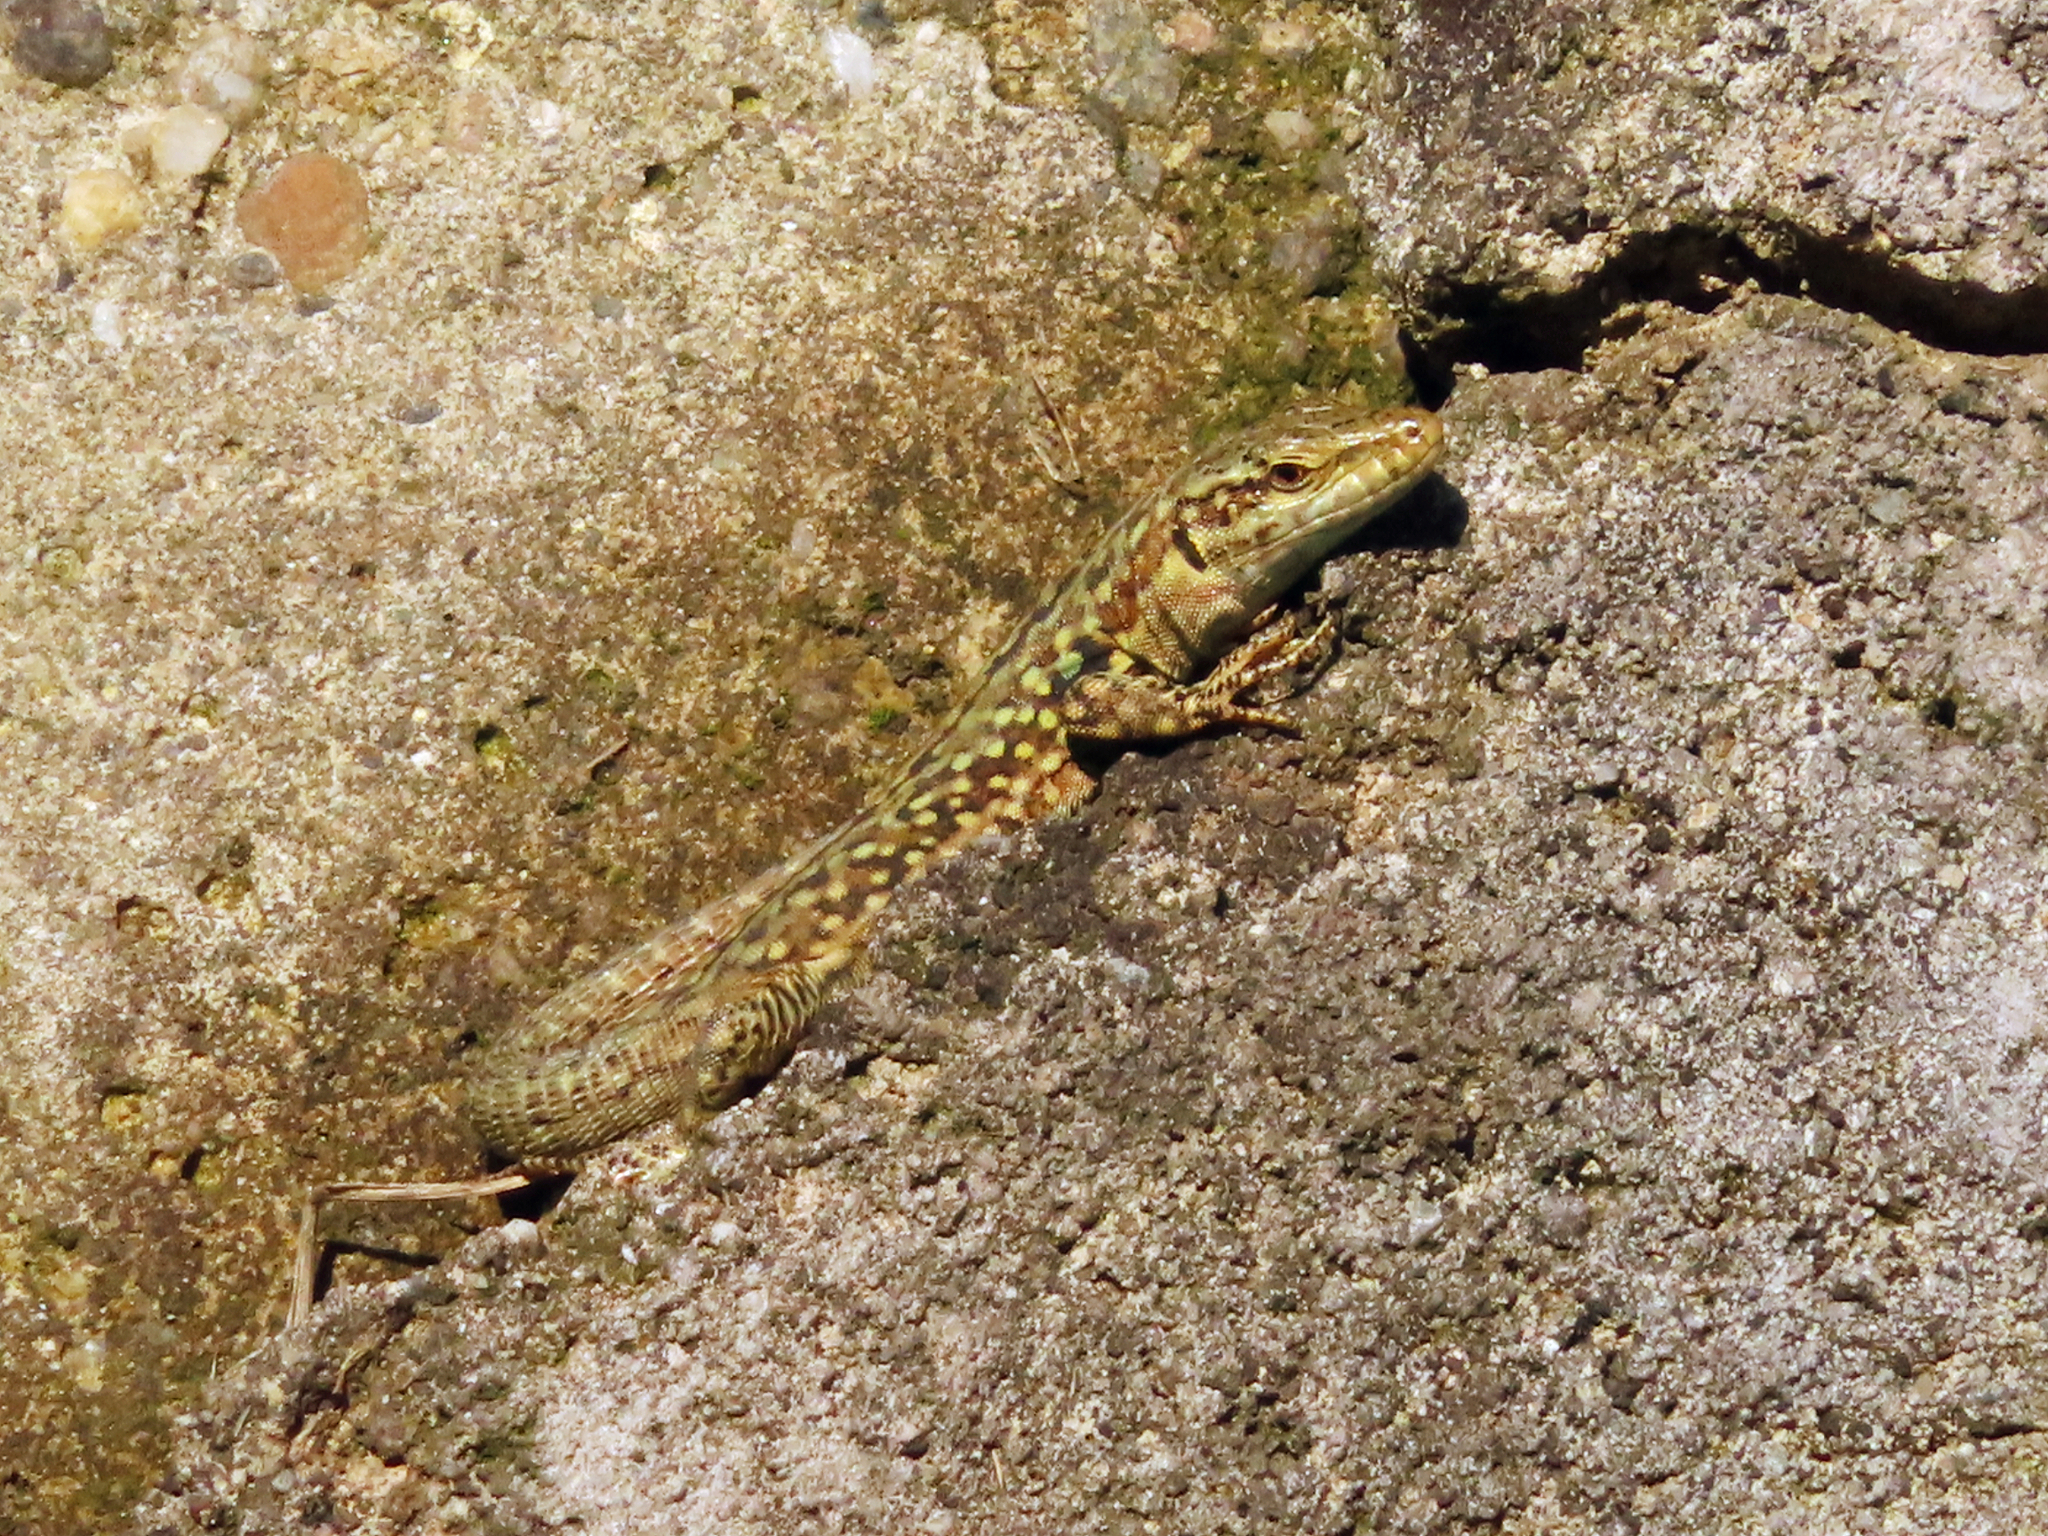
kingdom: Animalia
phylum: Chordata
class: Squamata
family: Lacertidae
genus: Podarcis
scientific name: Podarcis siculus
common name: Italian wall lizard
